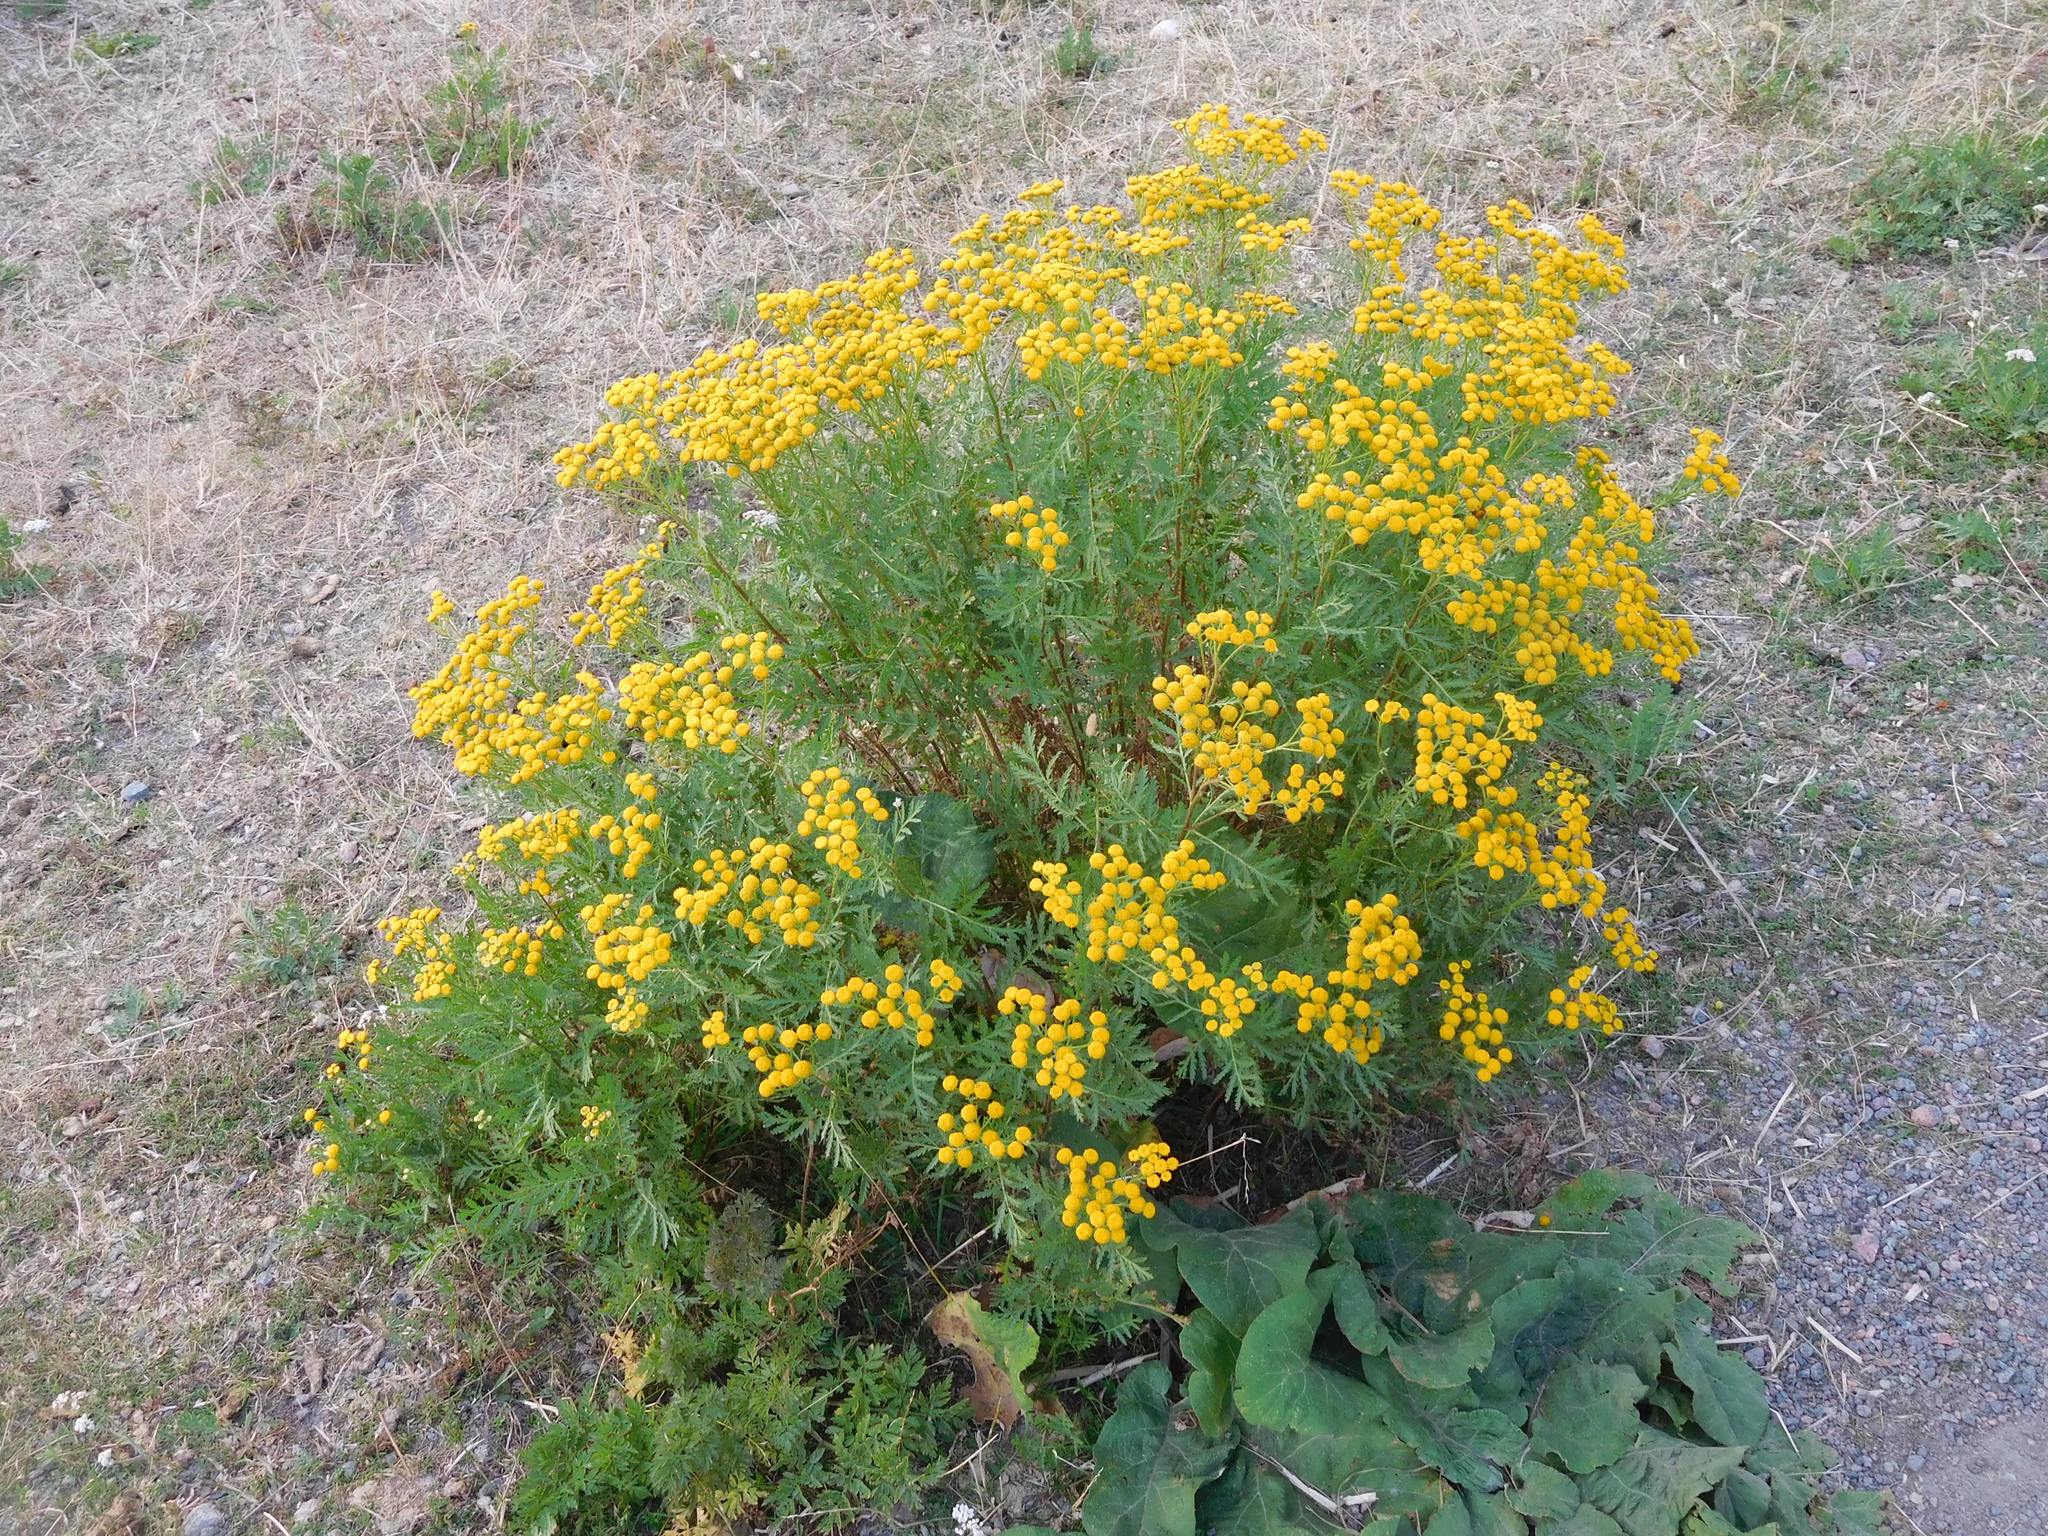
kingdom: Plantae
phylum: Tracheophyta
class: Magnoliopsida
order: Asterales
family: Asteraceae
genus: Tanacetum
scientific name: Tanacetum vulgare
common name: Common tansy
